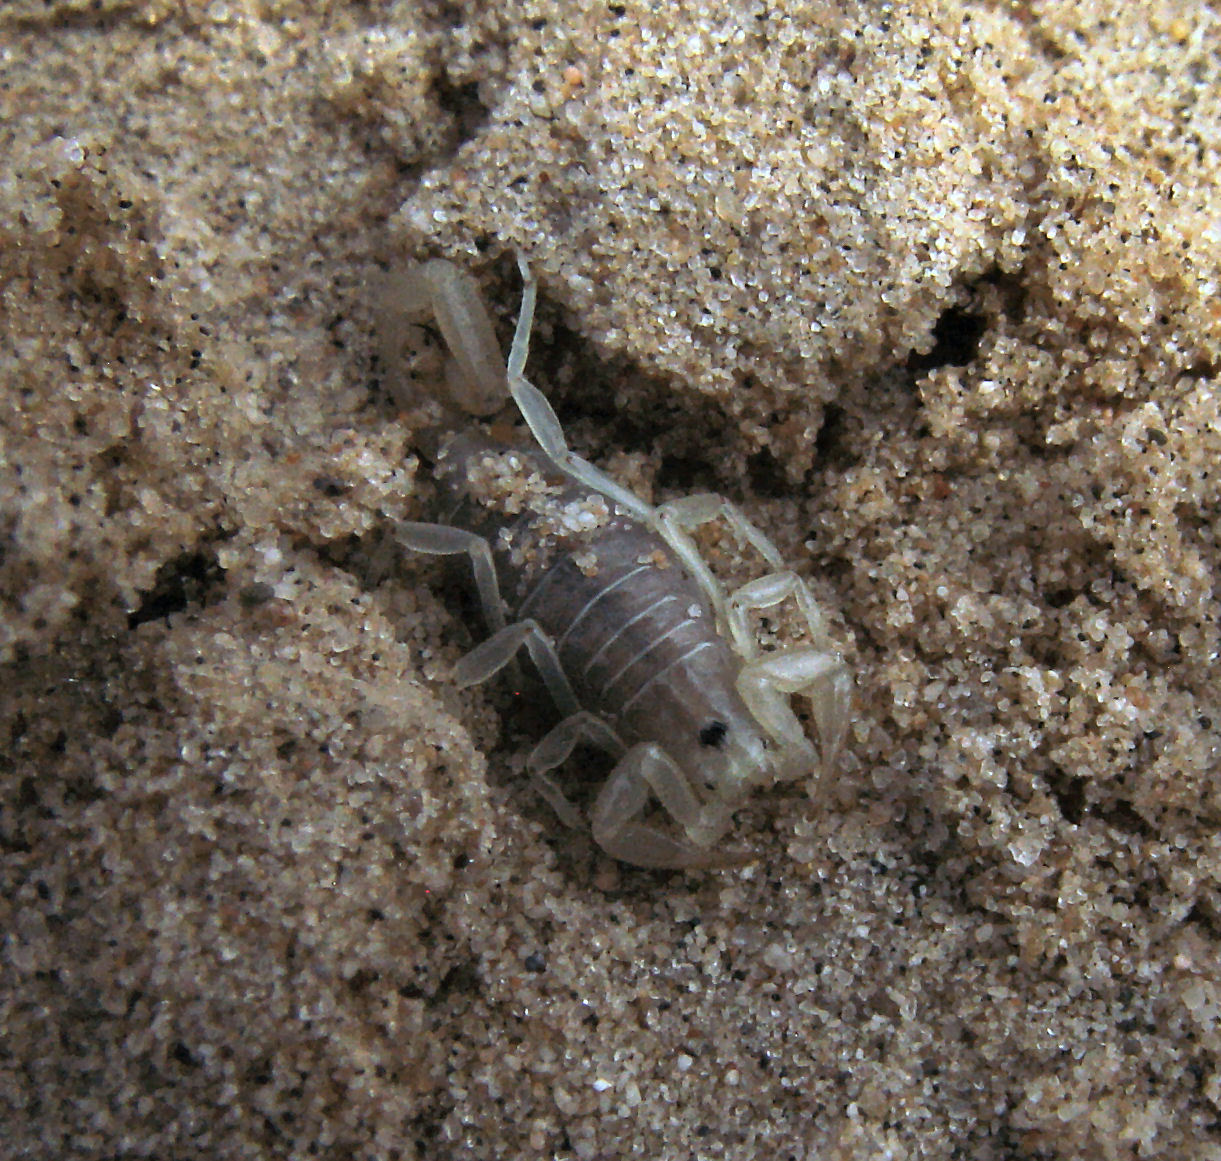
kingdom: Animalia
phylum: Arthropoda
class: Arachnida
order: Scorpiones
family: Vaejovidae
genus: Paruroctonus
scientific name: Paruroctonus arenicola
